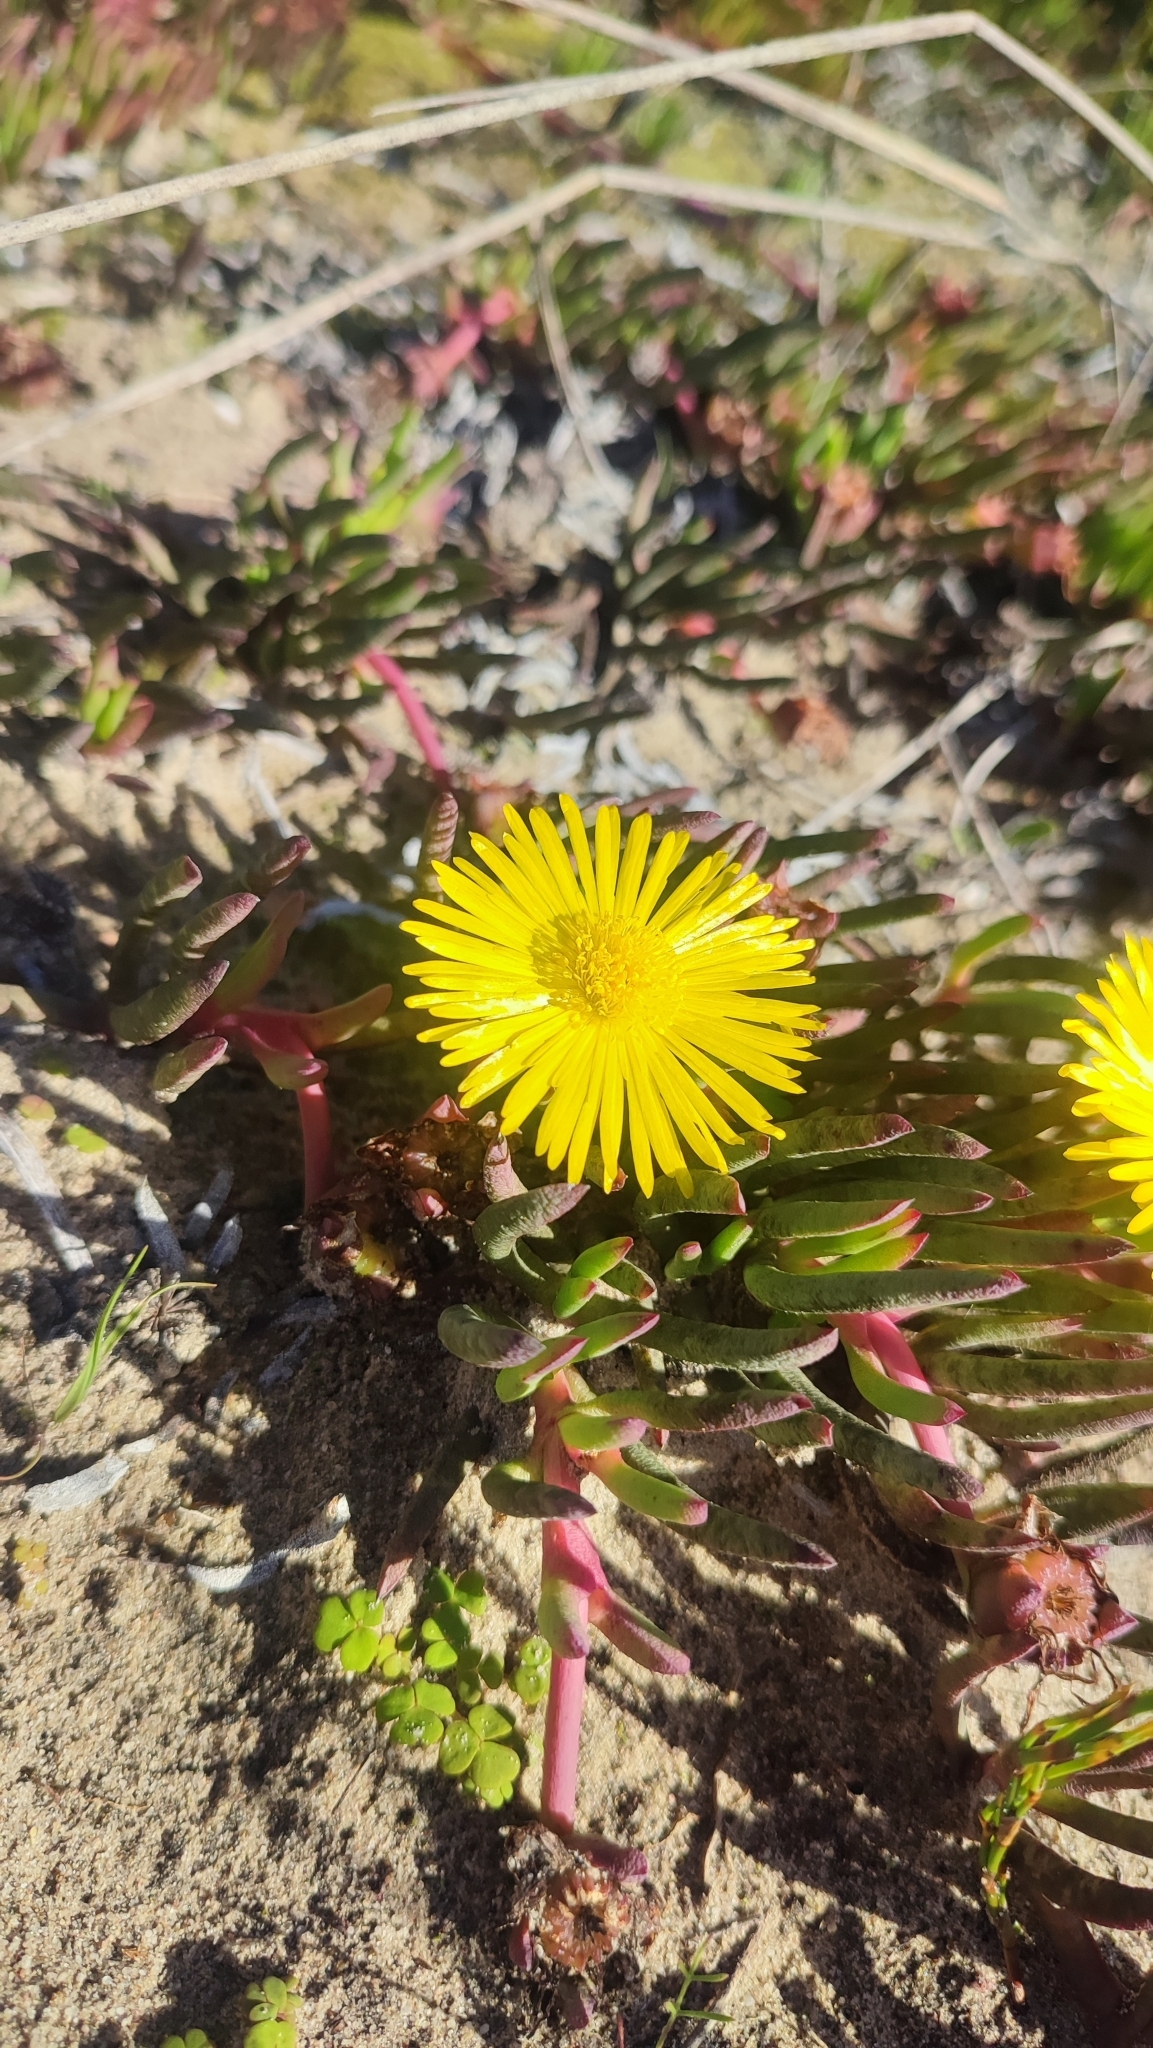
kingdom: Plantae
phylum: Tracheophyta
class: Magnoliopsida
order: Caryophyllales
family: Aizoaceae
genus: Jordaaniella
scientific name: Jordaaniella dubia
